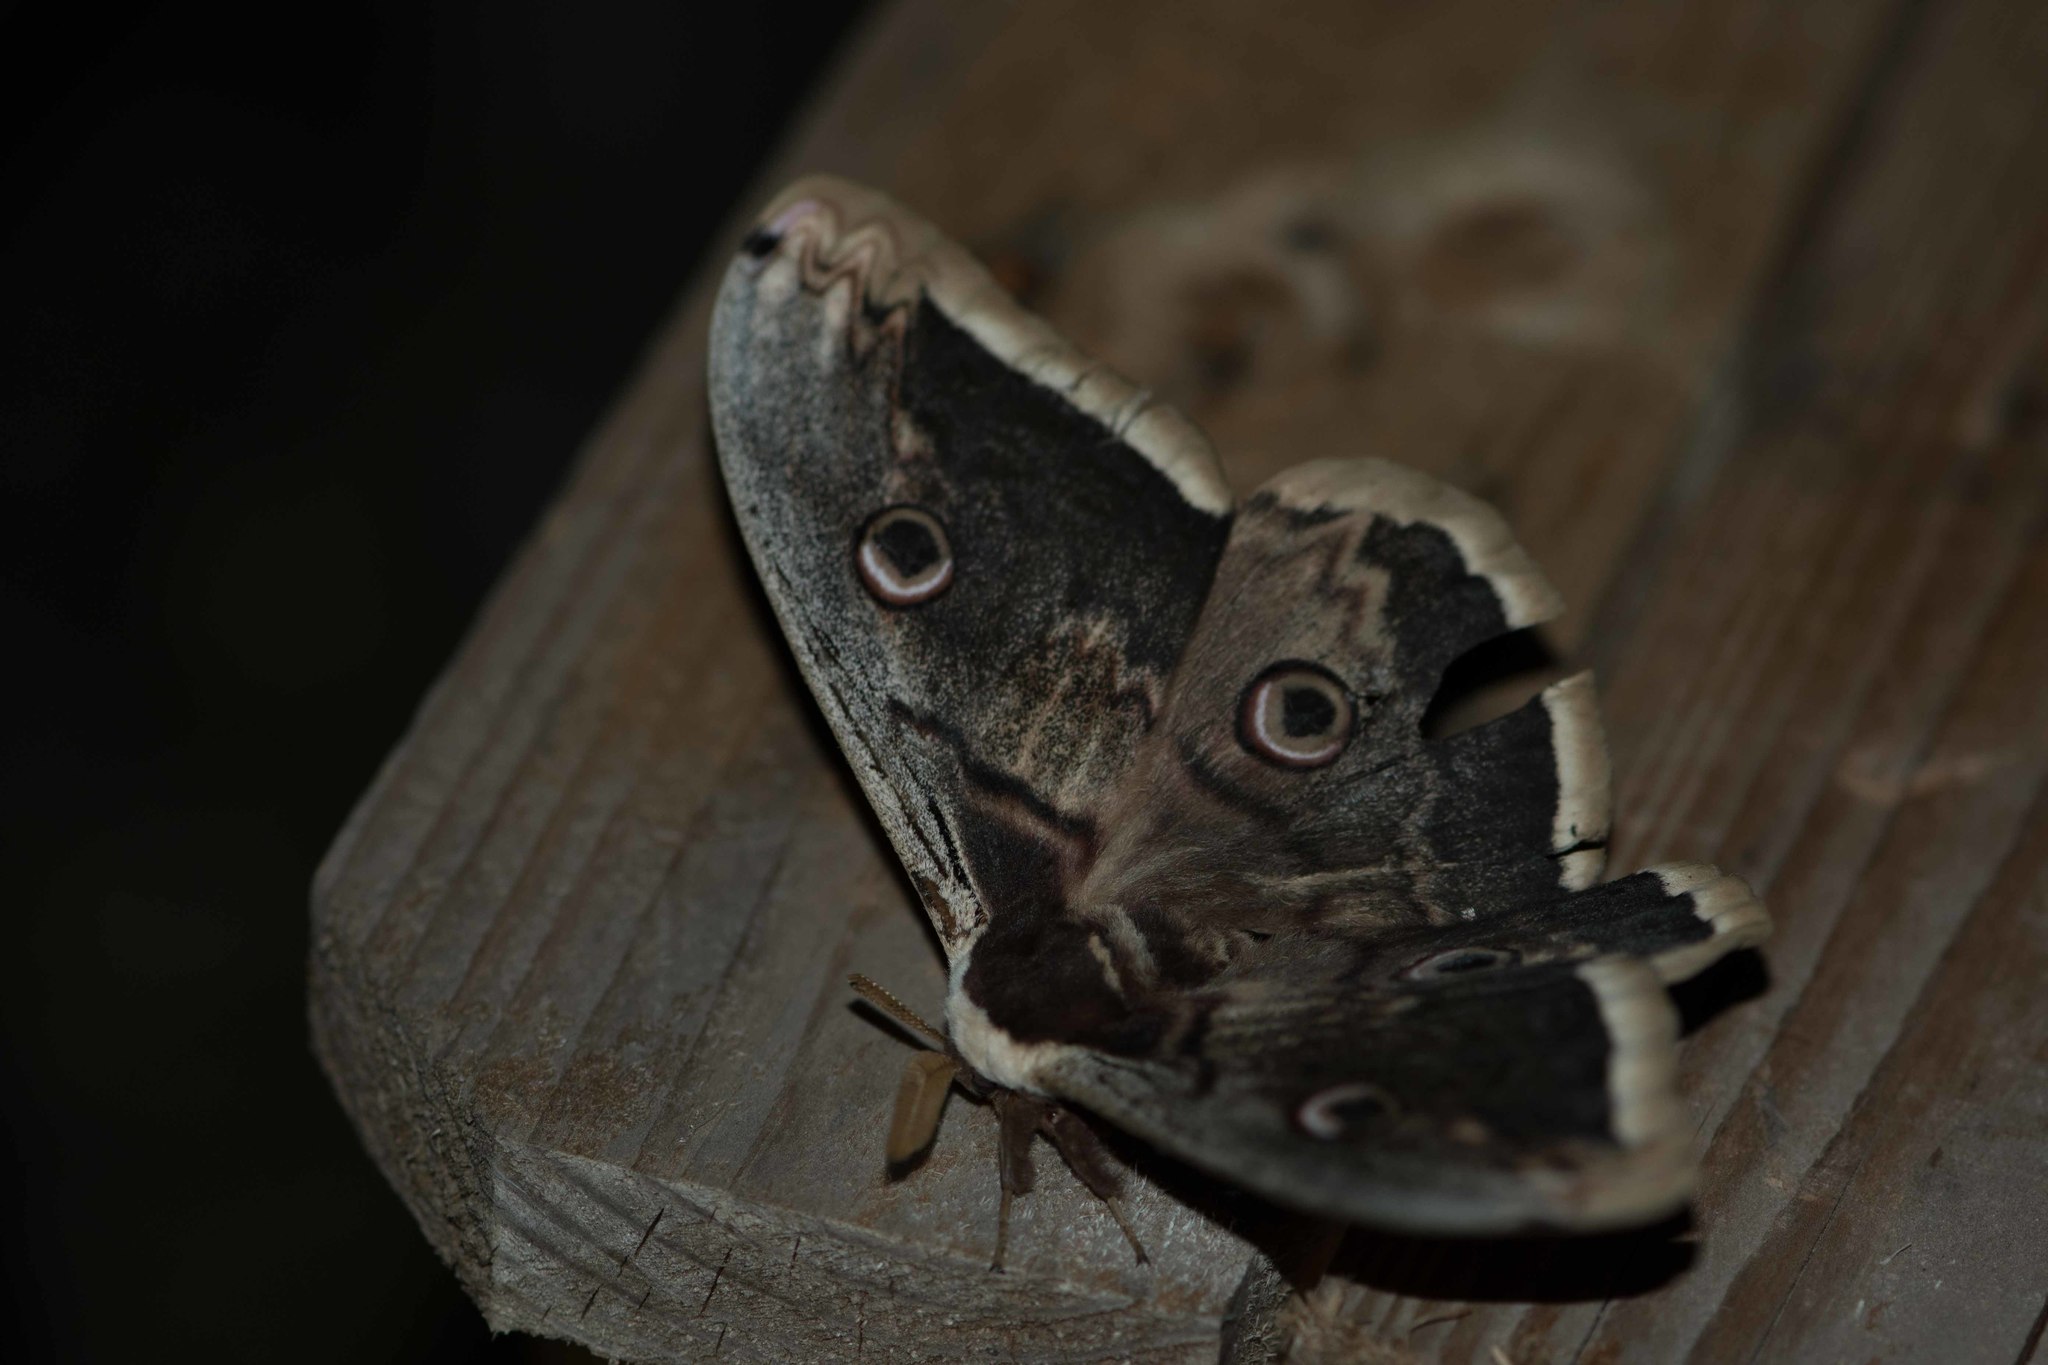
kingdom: Animalia
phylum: Arthropoda
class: Insecta
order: Lepidoptera
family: Saturniidae
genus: Saturnia
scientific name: Saturnia pyri
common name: Great peacock moth
